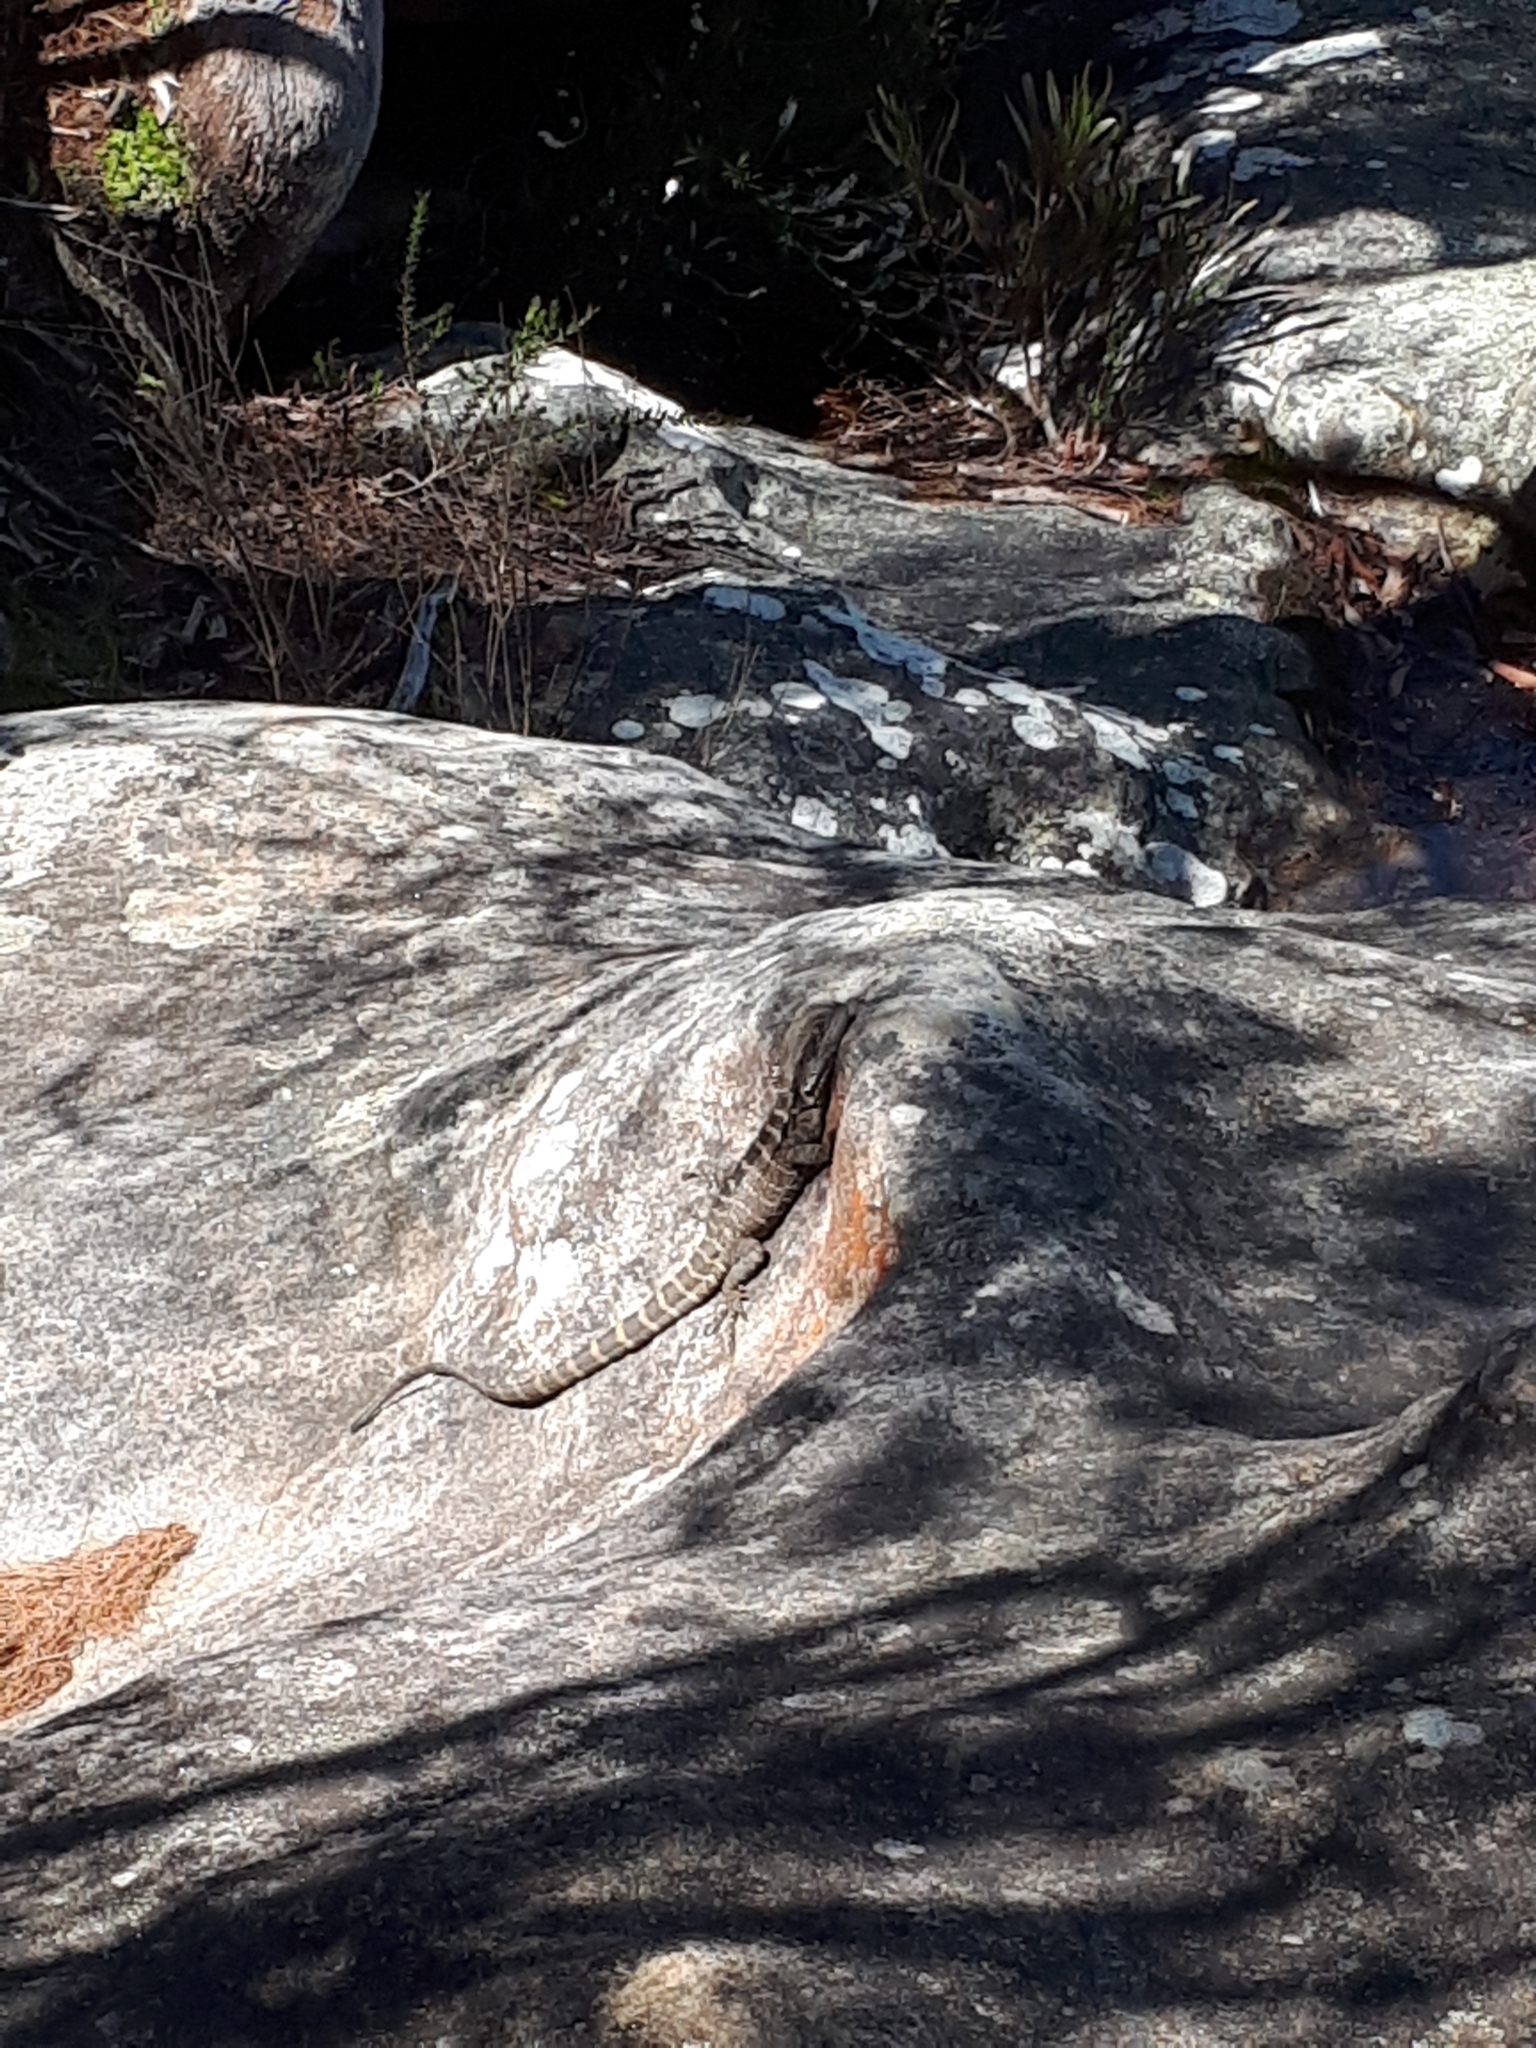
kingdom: Animalia
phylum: Chordata
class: Squamata
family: Agamidae
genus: Intellagama
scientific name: Intellagama lesueurii
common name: Eastern water dragon
